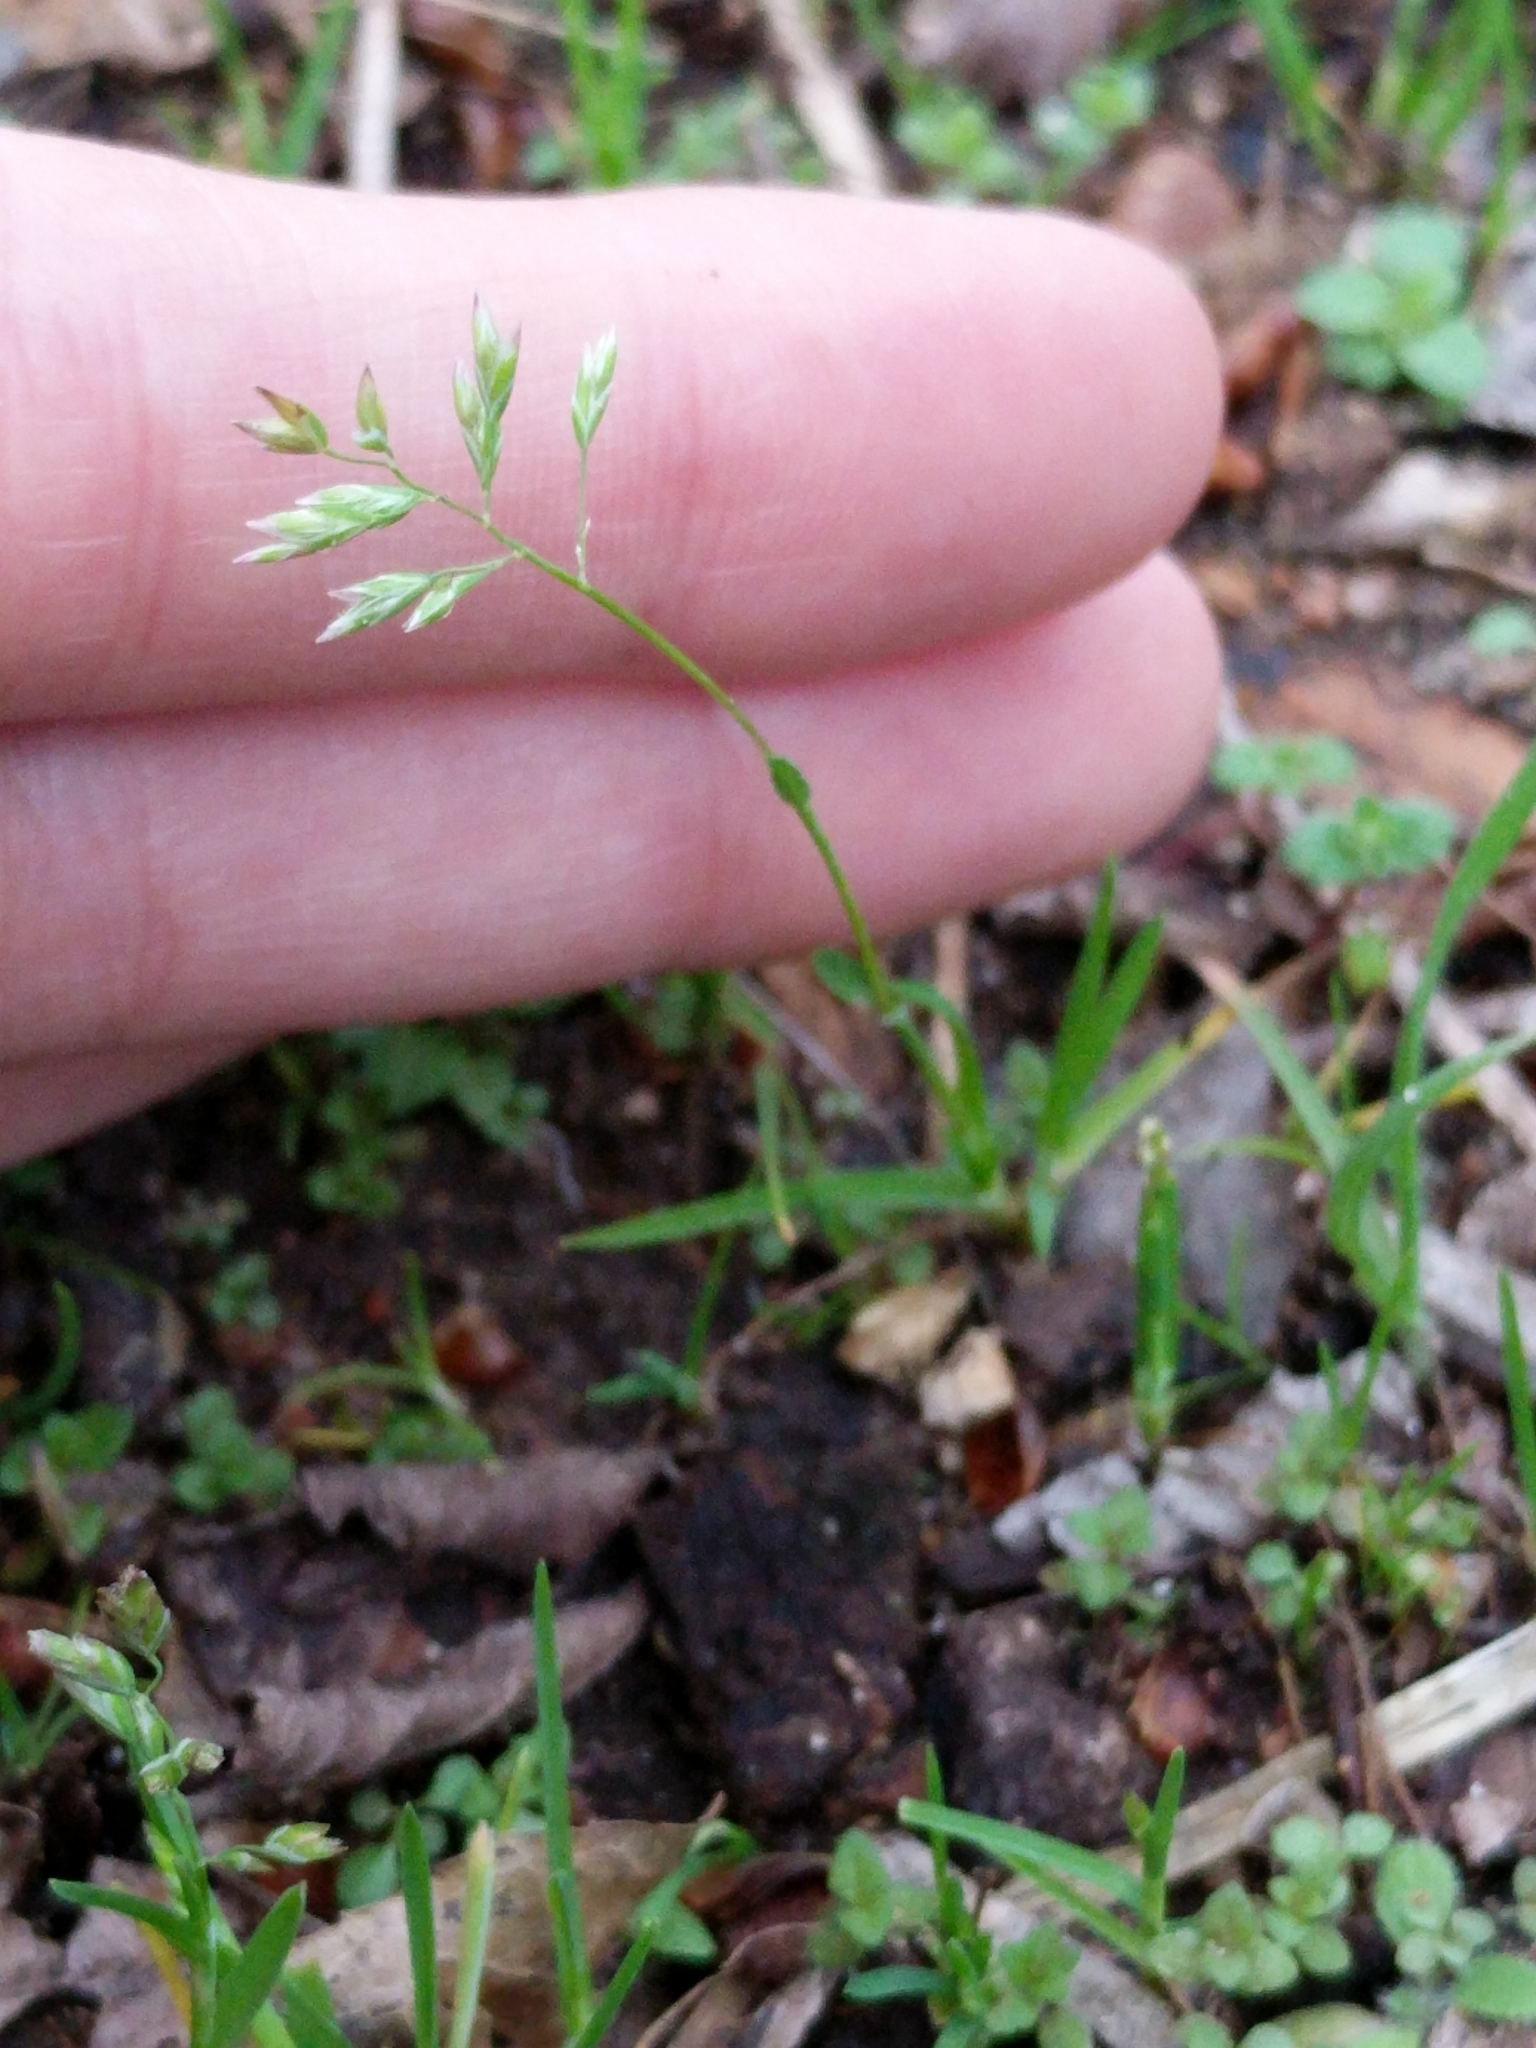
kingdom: Plantae
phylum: Tracheophyta
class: Liliopsida
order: Poales
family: Poaceae
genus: Poa
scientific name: Poa annua
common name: Annual bluegrass
